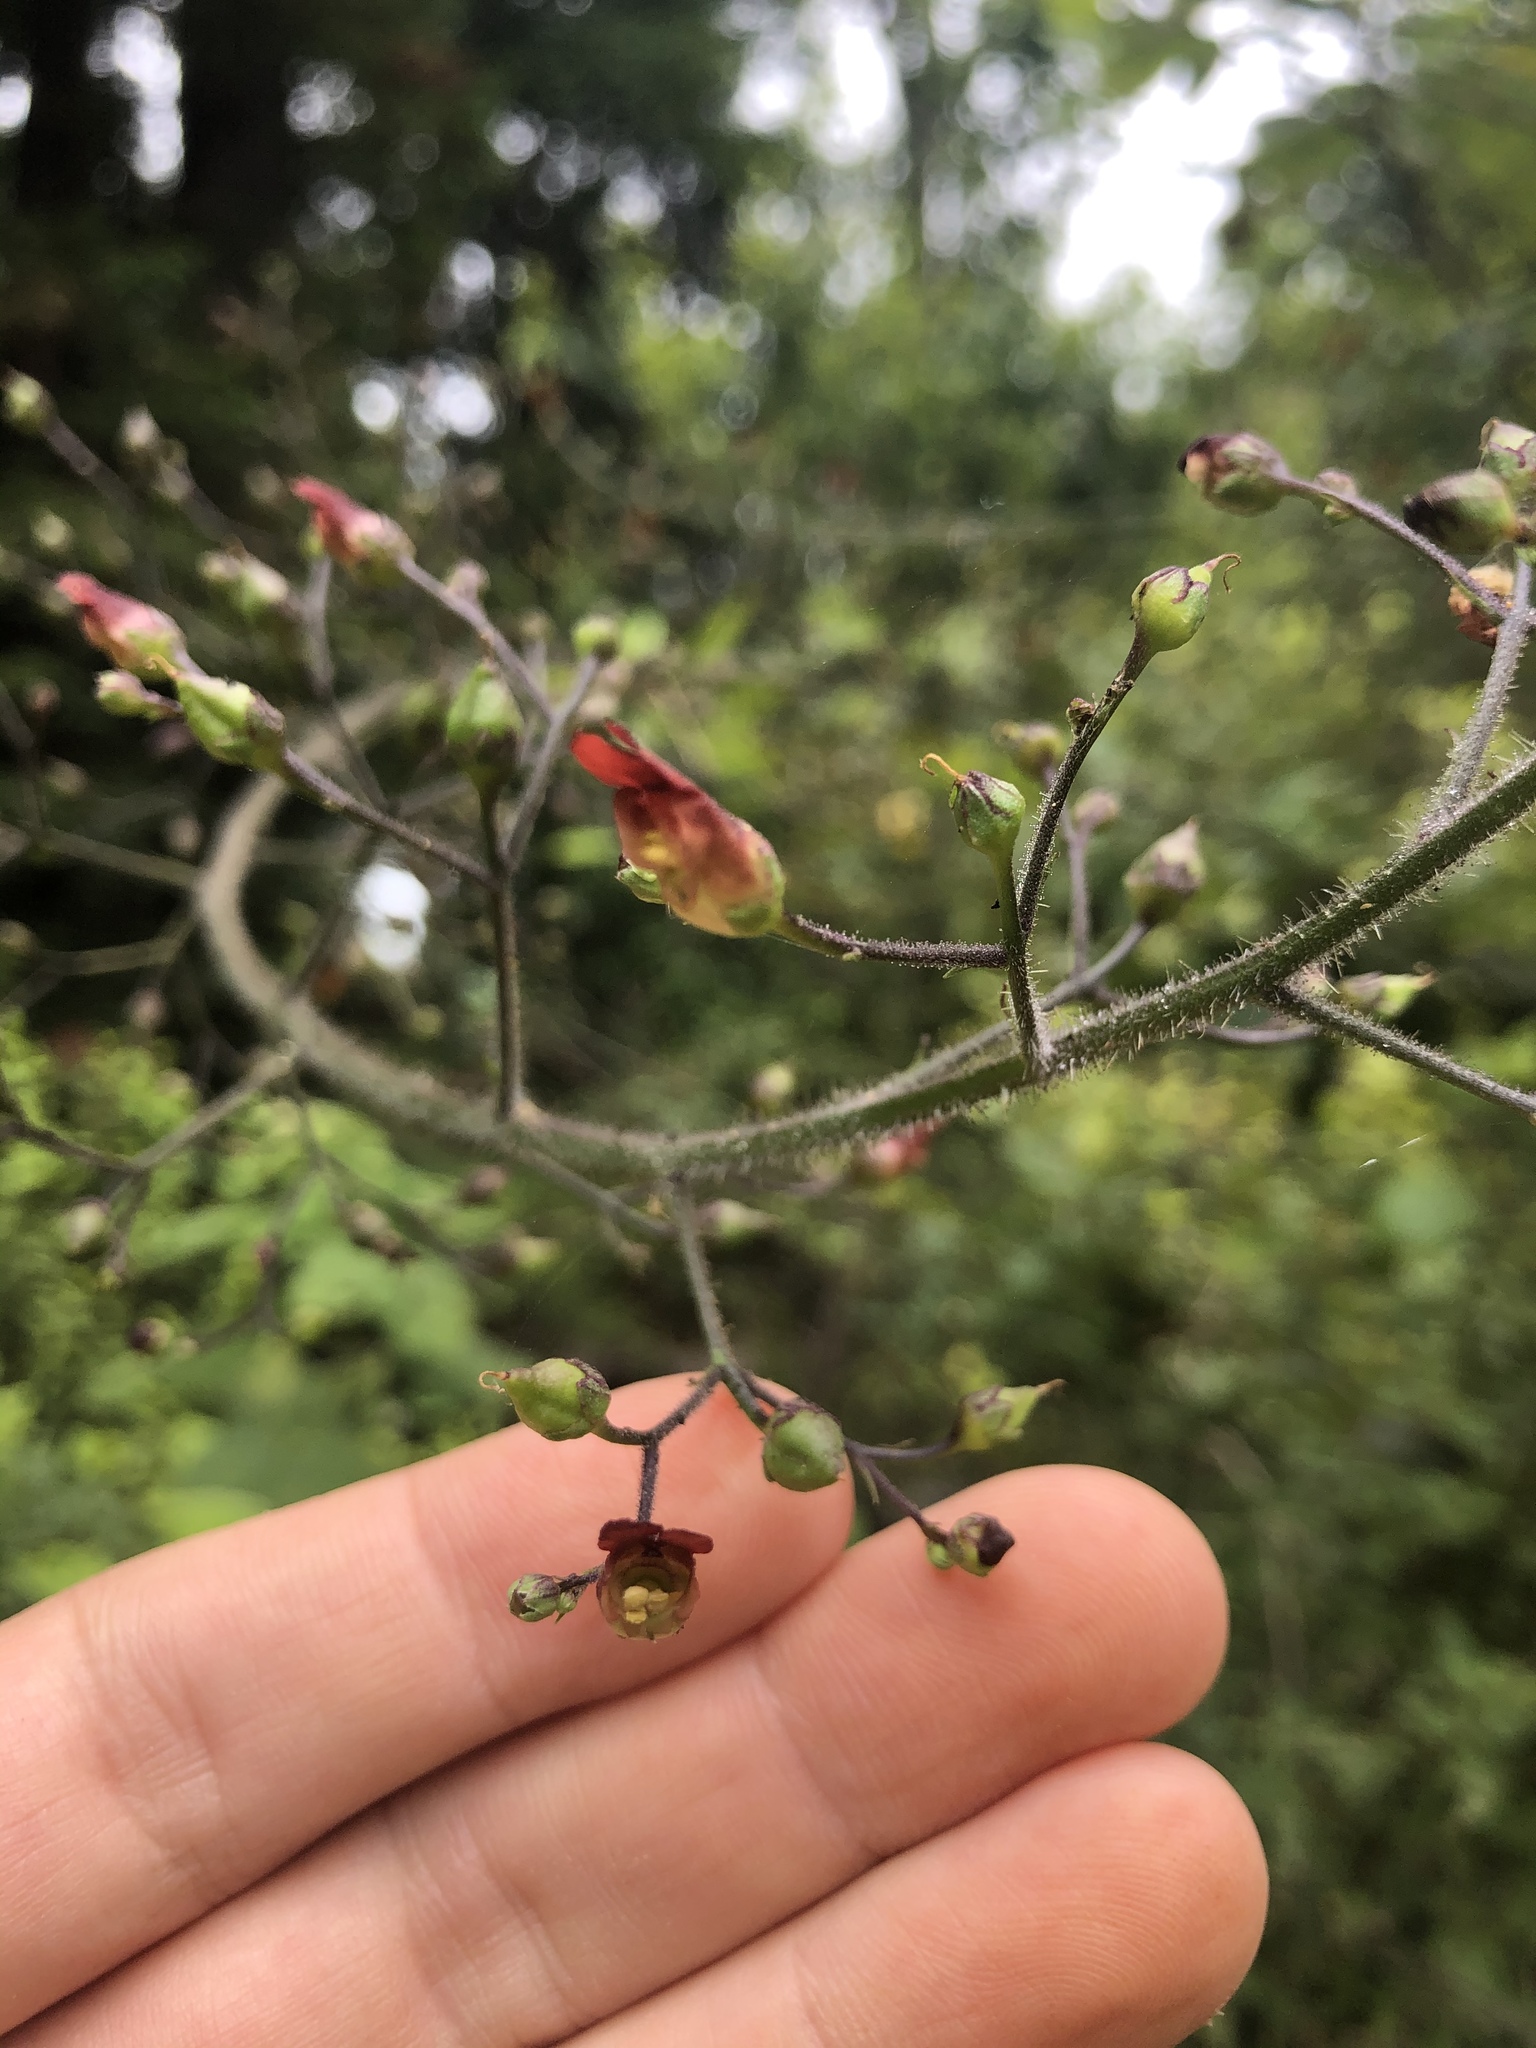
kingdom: Plantae
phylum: Tracheophyta
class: Magnoliopsida
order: Lamiales
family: Scrophulariaceae
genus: Scrophularia
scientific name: Scrophularia californica
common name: California figwort
